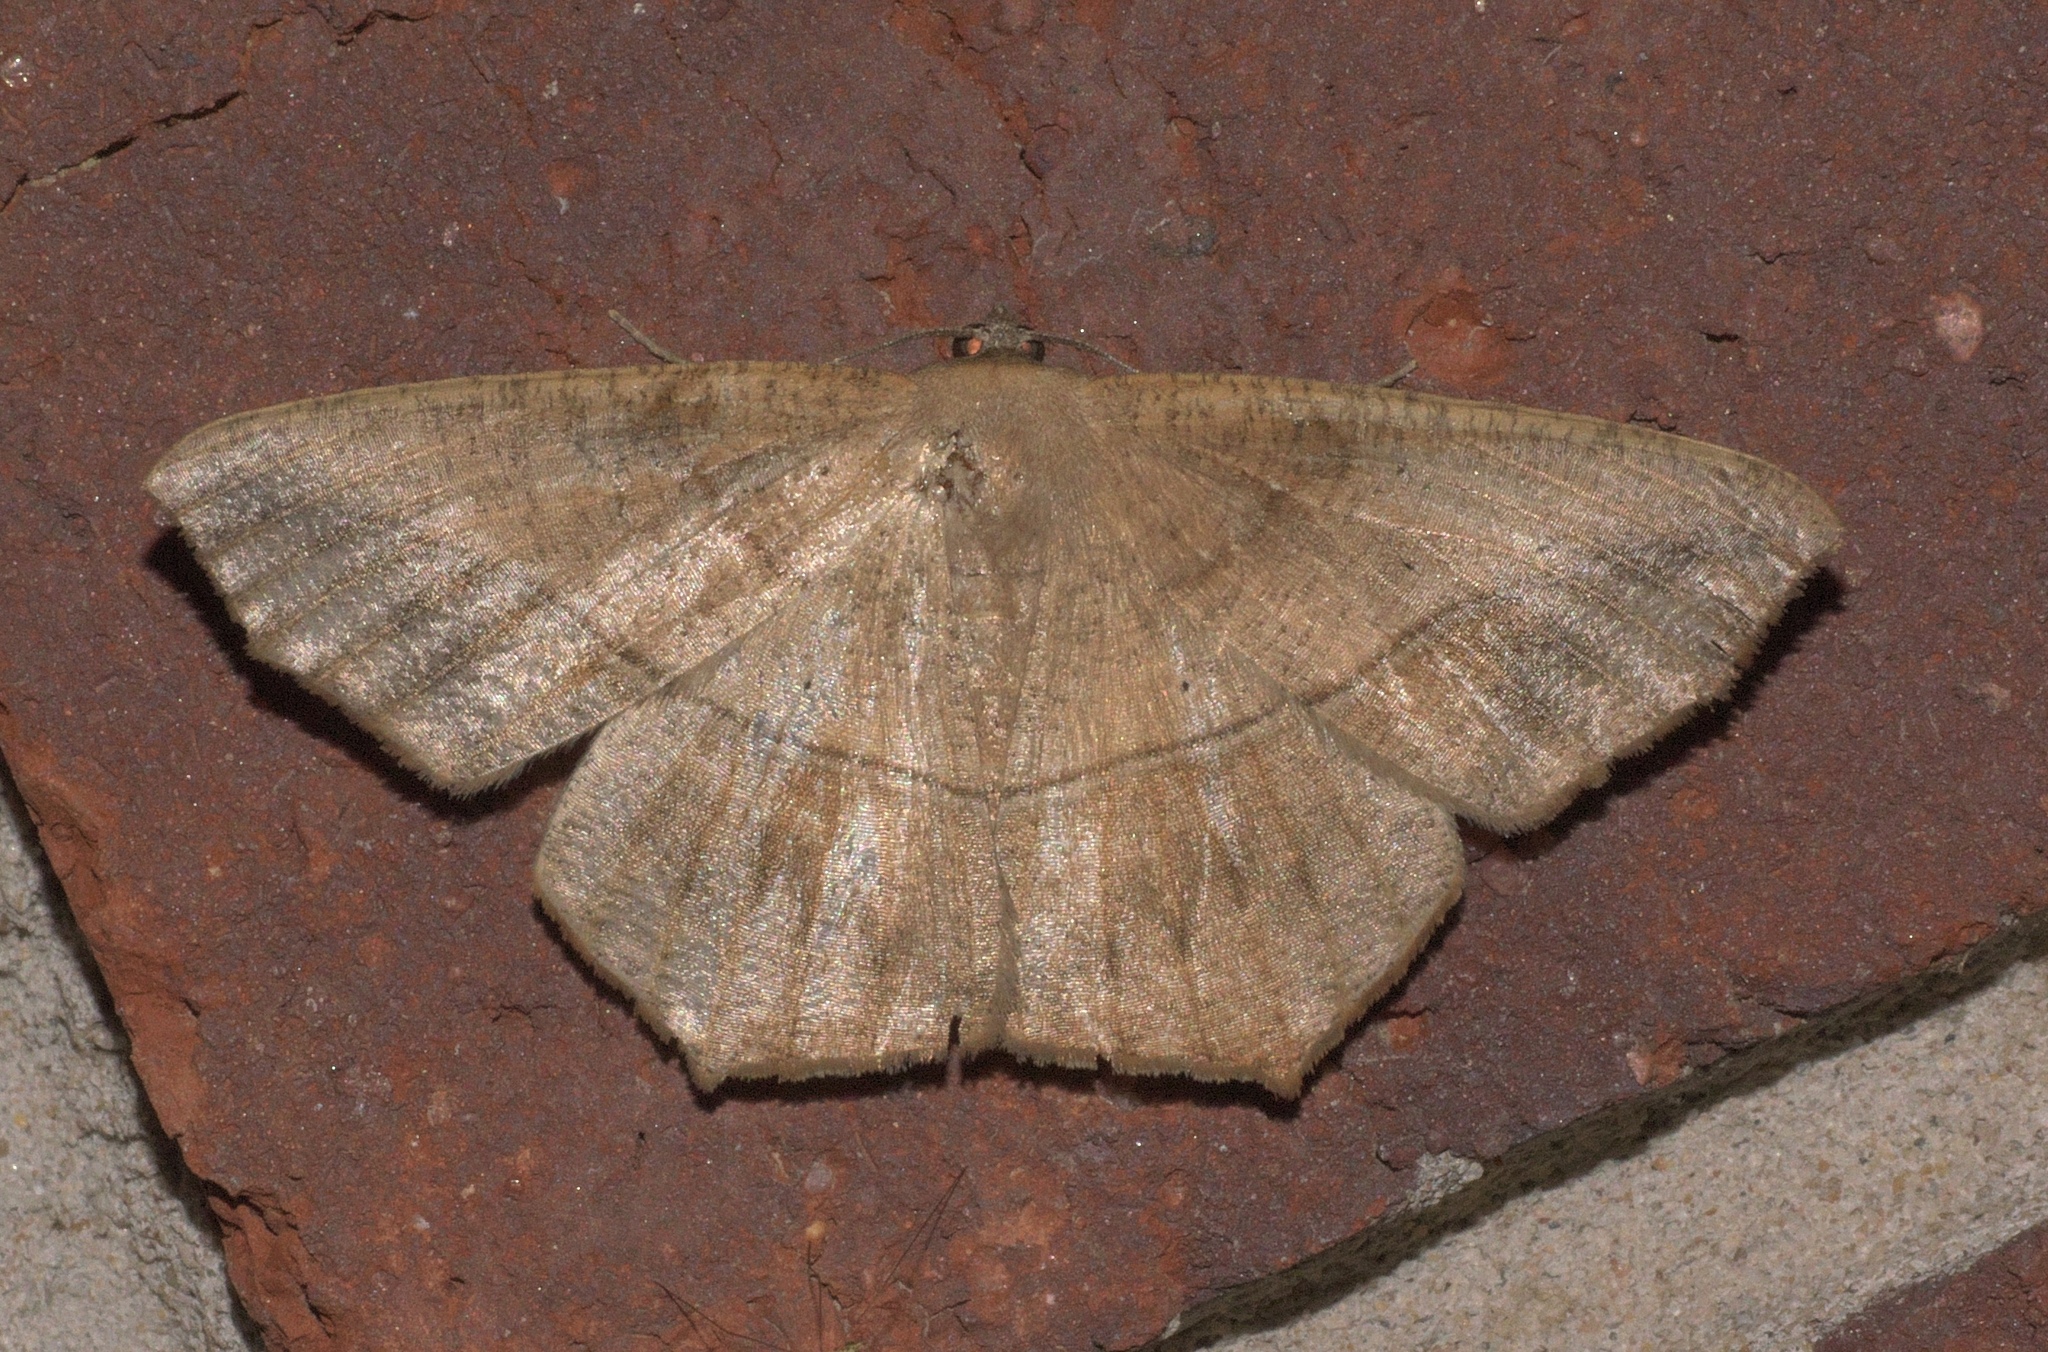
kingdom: Animalia
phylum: Arthropoda
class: Insecta
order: Lepidoptera
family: Geometridae
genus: Prochoerodes
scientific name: Prochoerodes lineola
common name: Large maple spanworm
